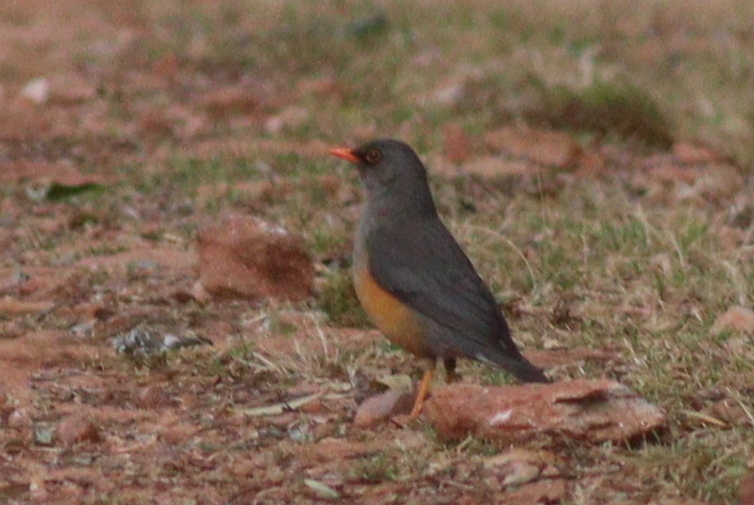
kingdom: Animalia
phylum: Chordata
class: Aves
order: Passeriformes
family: Turdidae
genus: Turdus
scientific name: Turdus abyssinicus
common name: Abyssinian thrush
